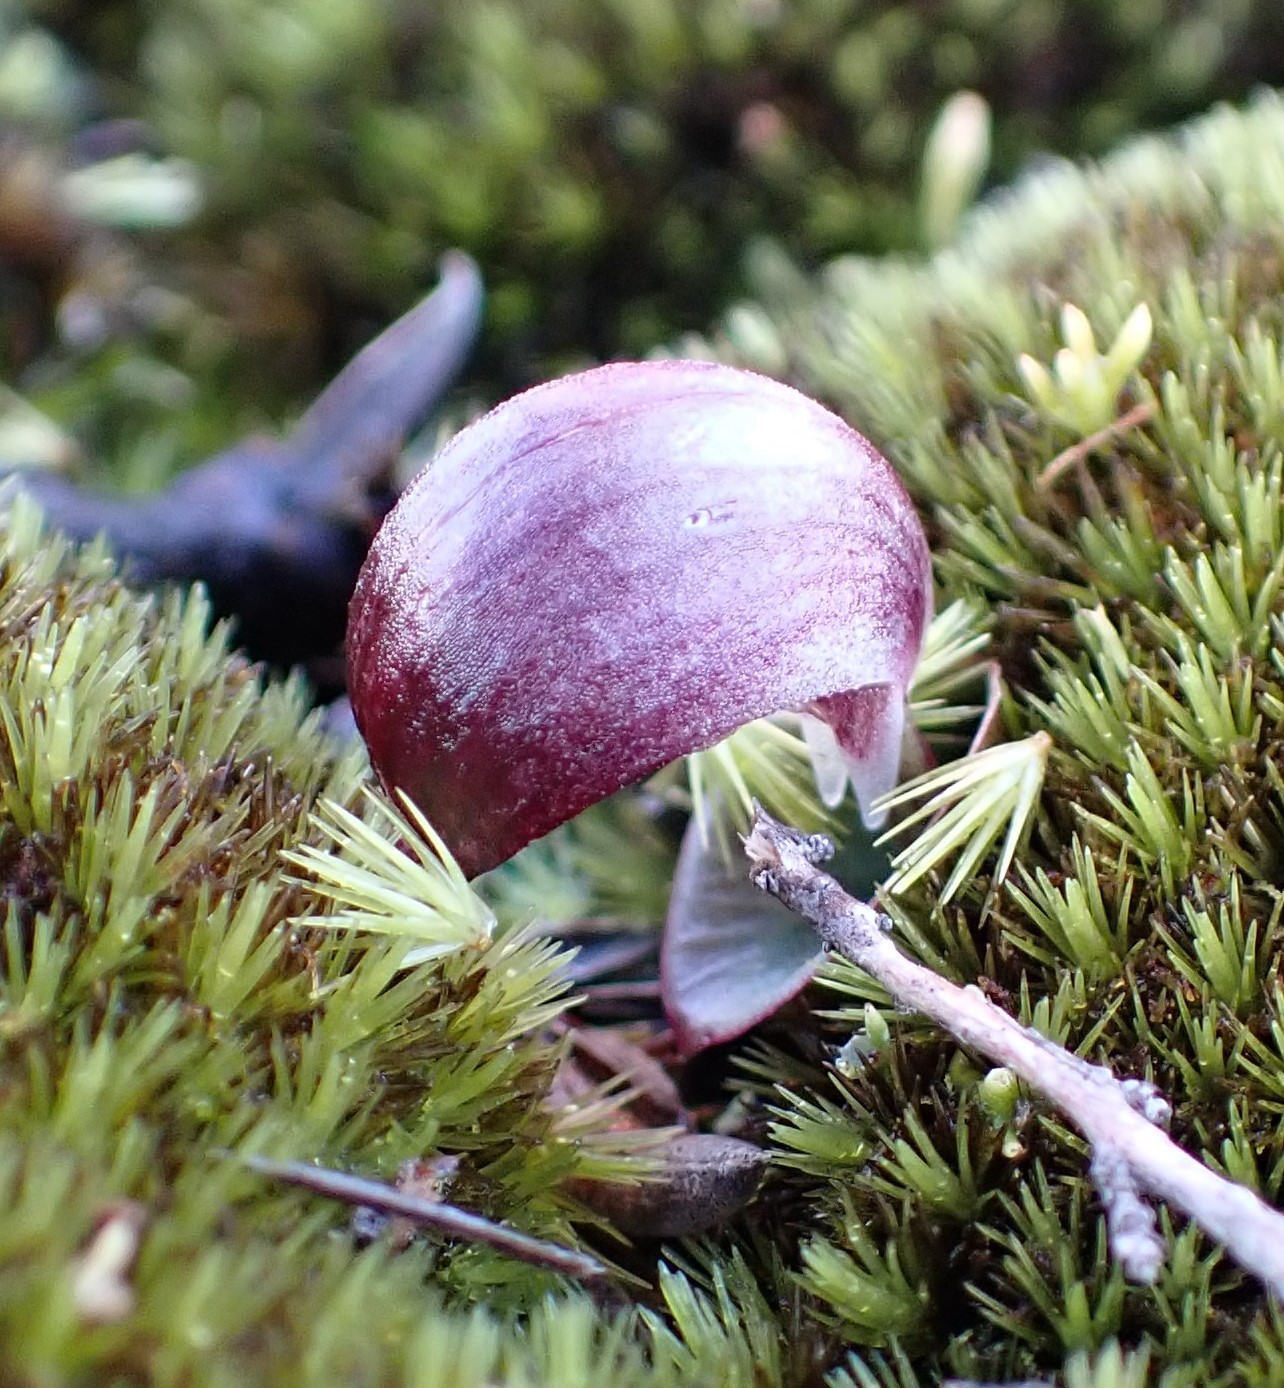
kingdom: Plantae
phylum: Tracheophyta
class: Liliopsida
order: Asparagales
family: Orchidaceae
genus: Corybas
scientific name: Corybas aconitiflorus
